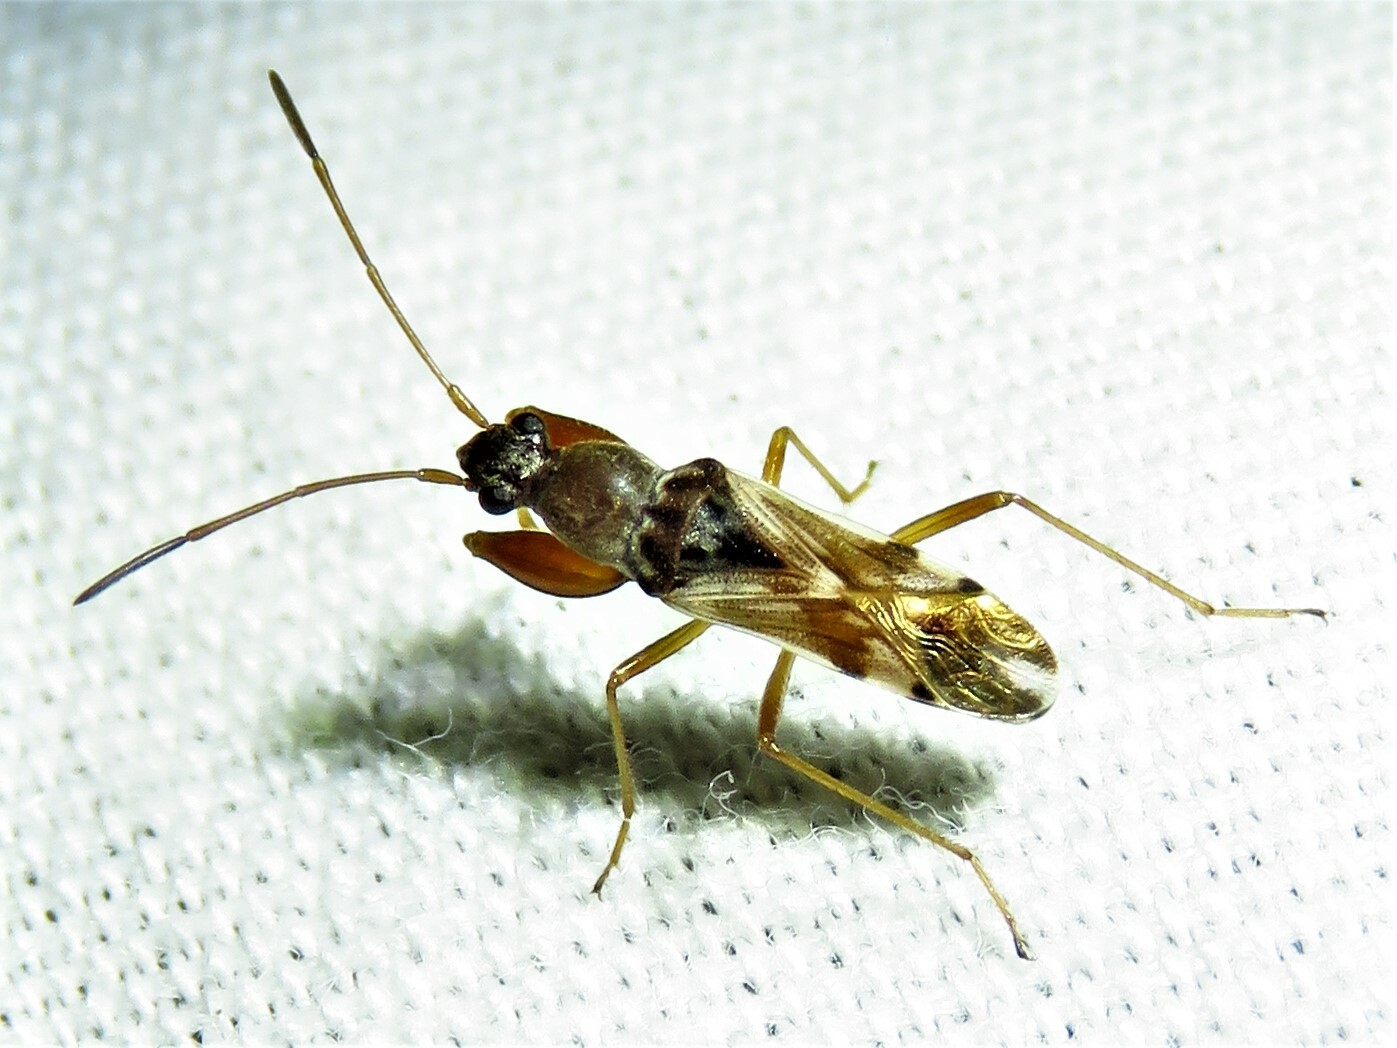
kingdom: Animalia
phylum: Arthropoda
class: Insecta
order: Hemiptera
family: Rhyparochromidae
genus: Neopamera
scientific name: Neopamera bilobata
